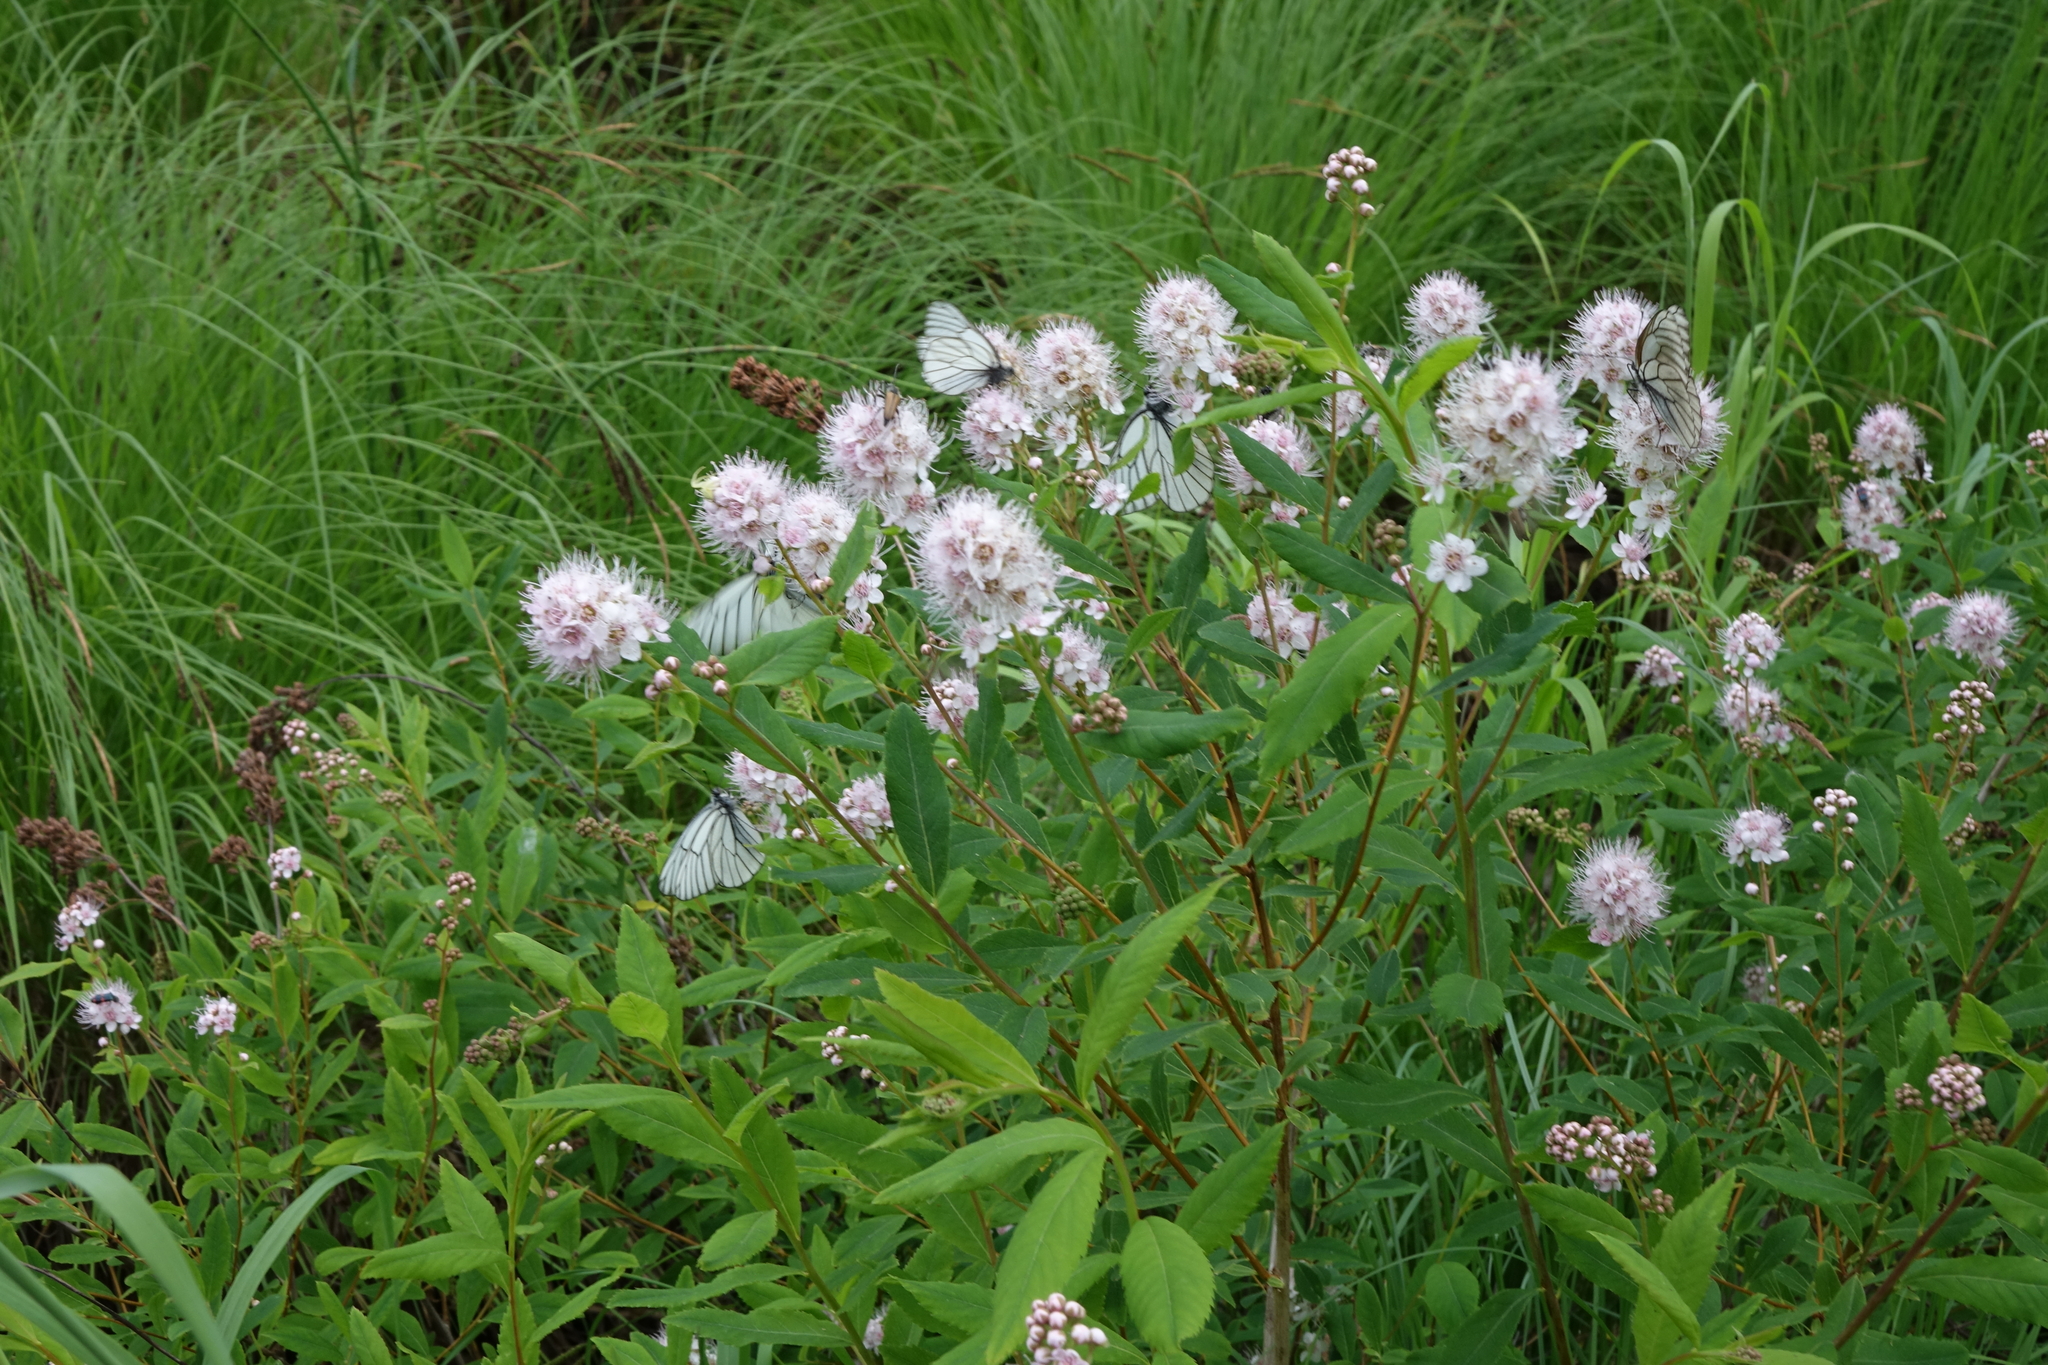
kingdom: Plantae
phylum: Tracheophyta
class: Magnoliopsida
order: Rosales
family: Rosaceae
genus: Spiraea
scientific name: Spiraea salicifolia
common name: Bridewort
